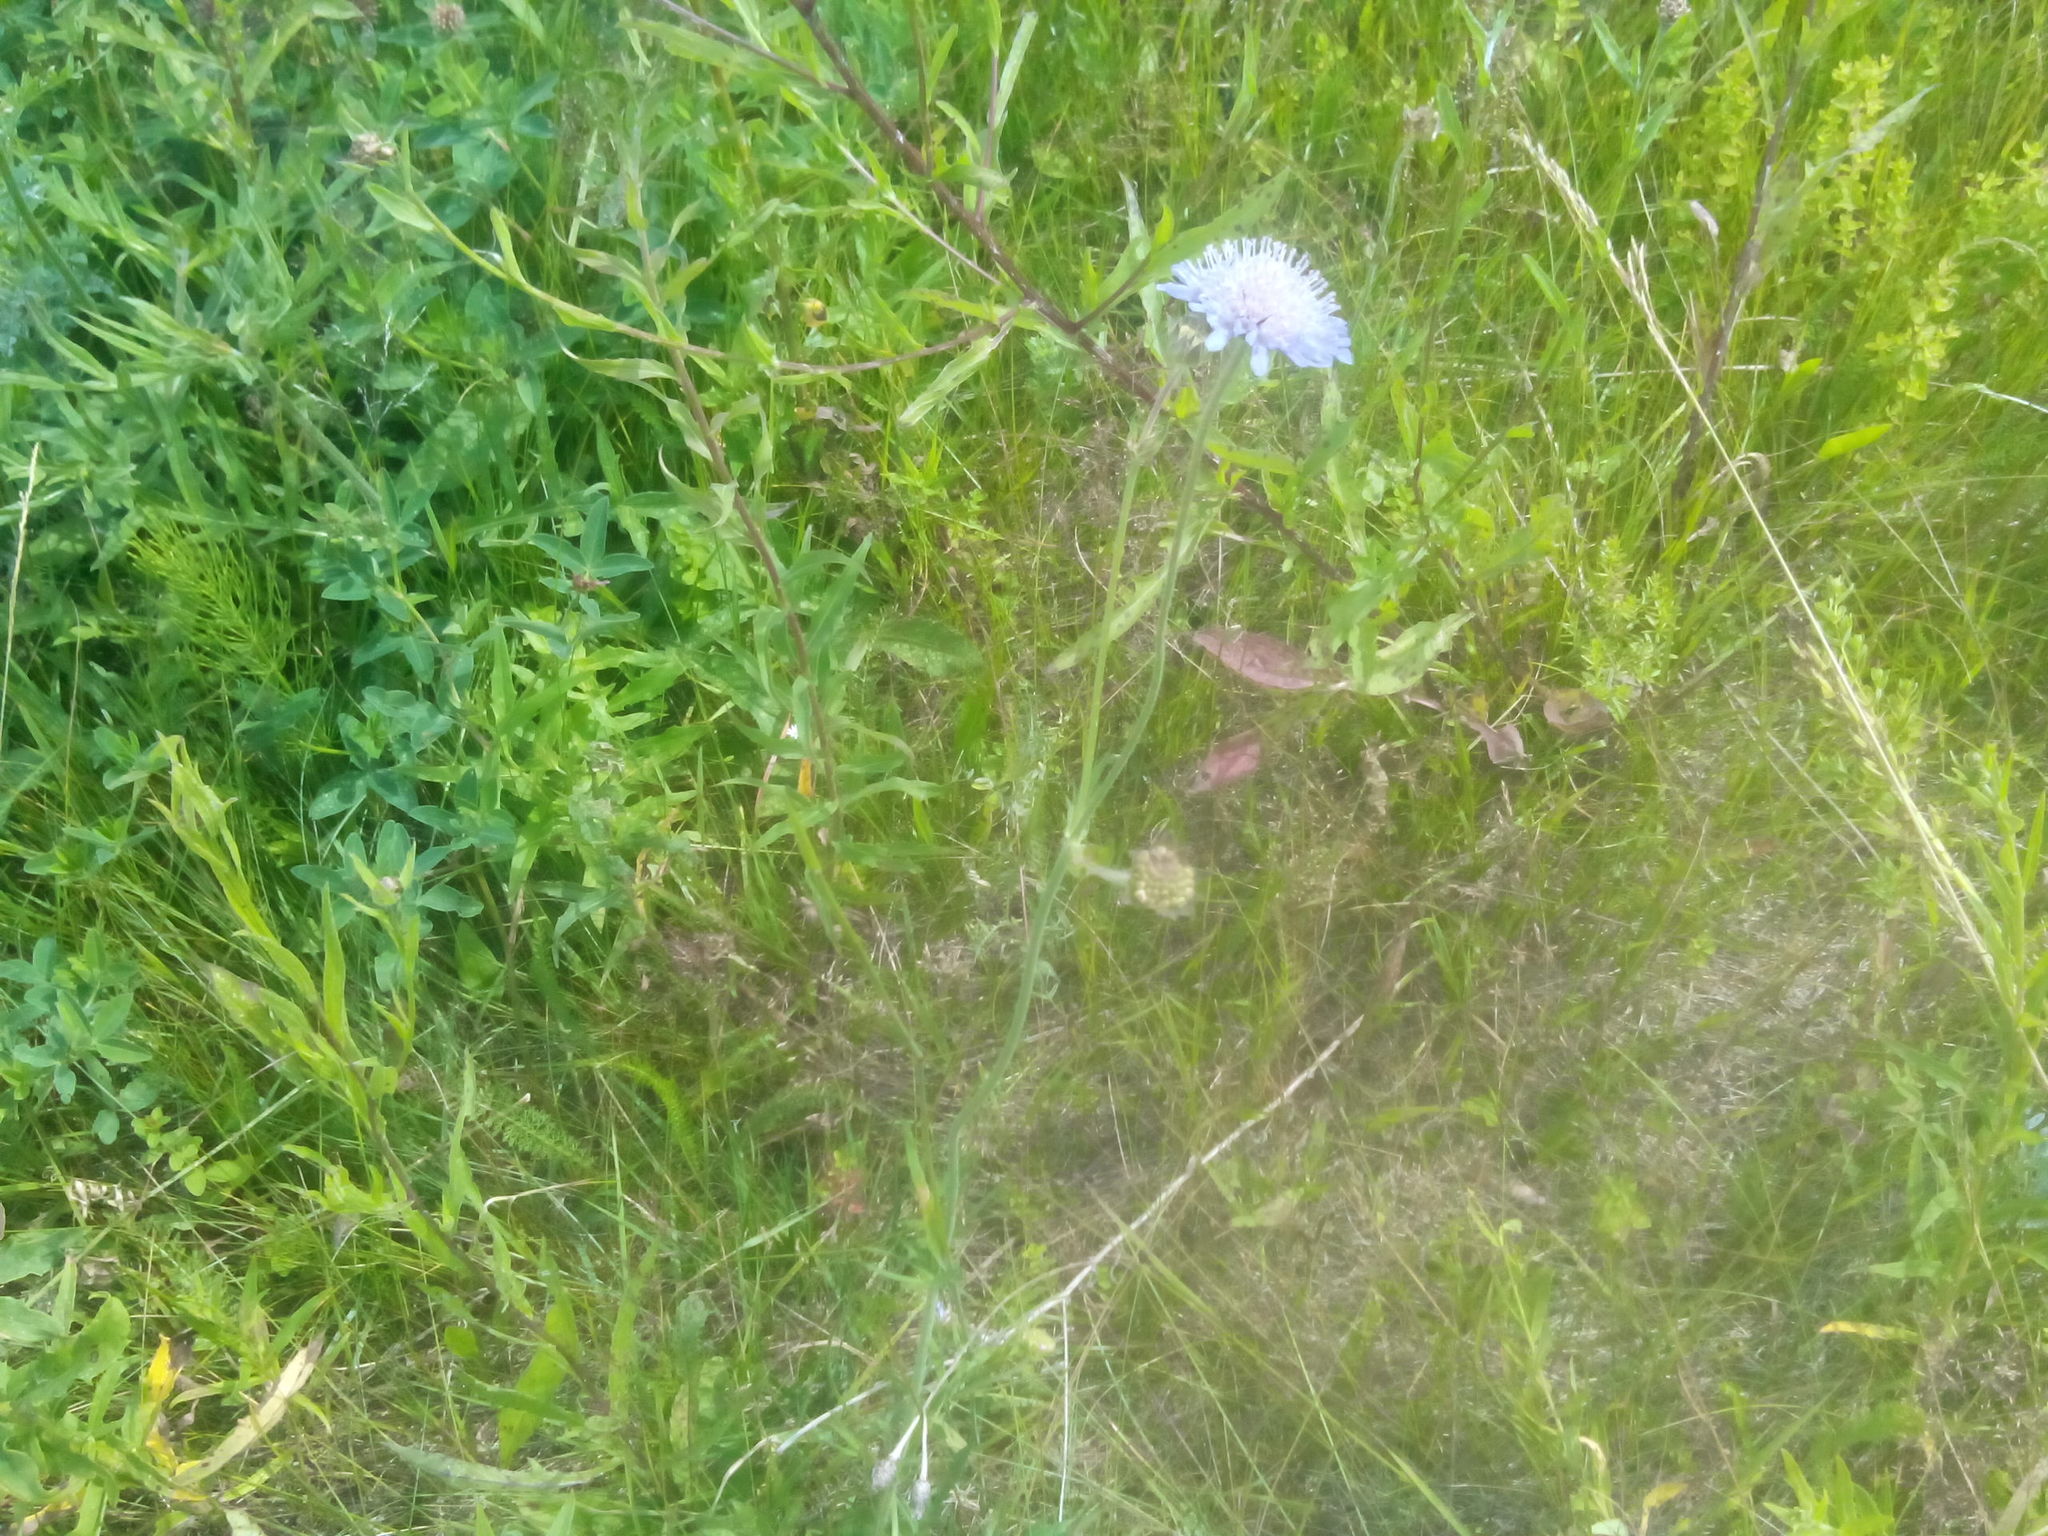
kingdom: Plantae
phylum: Tracheophyta
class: Magnoliopsida
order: Dipsacales
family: Caprifoliaceae
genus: Knautia
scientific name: Knautia arvensis
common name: Field scabiosa
